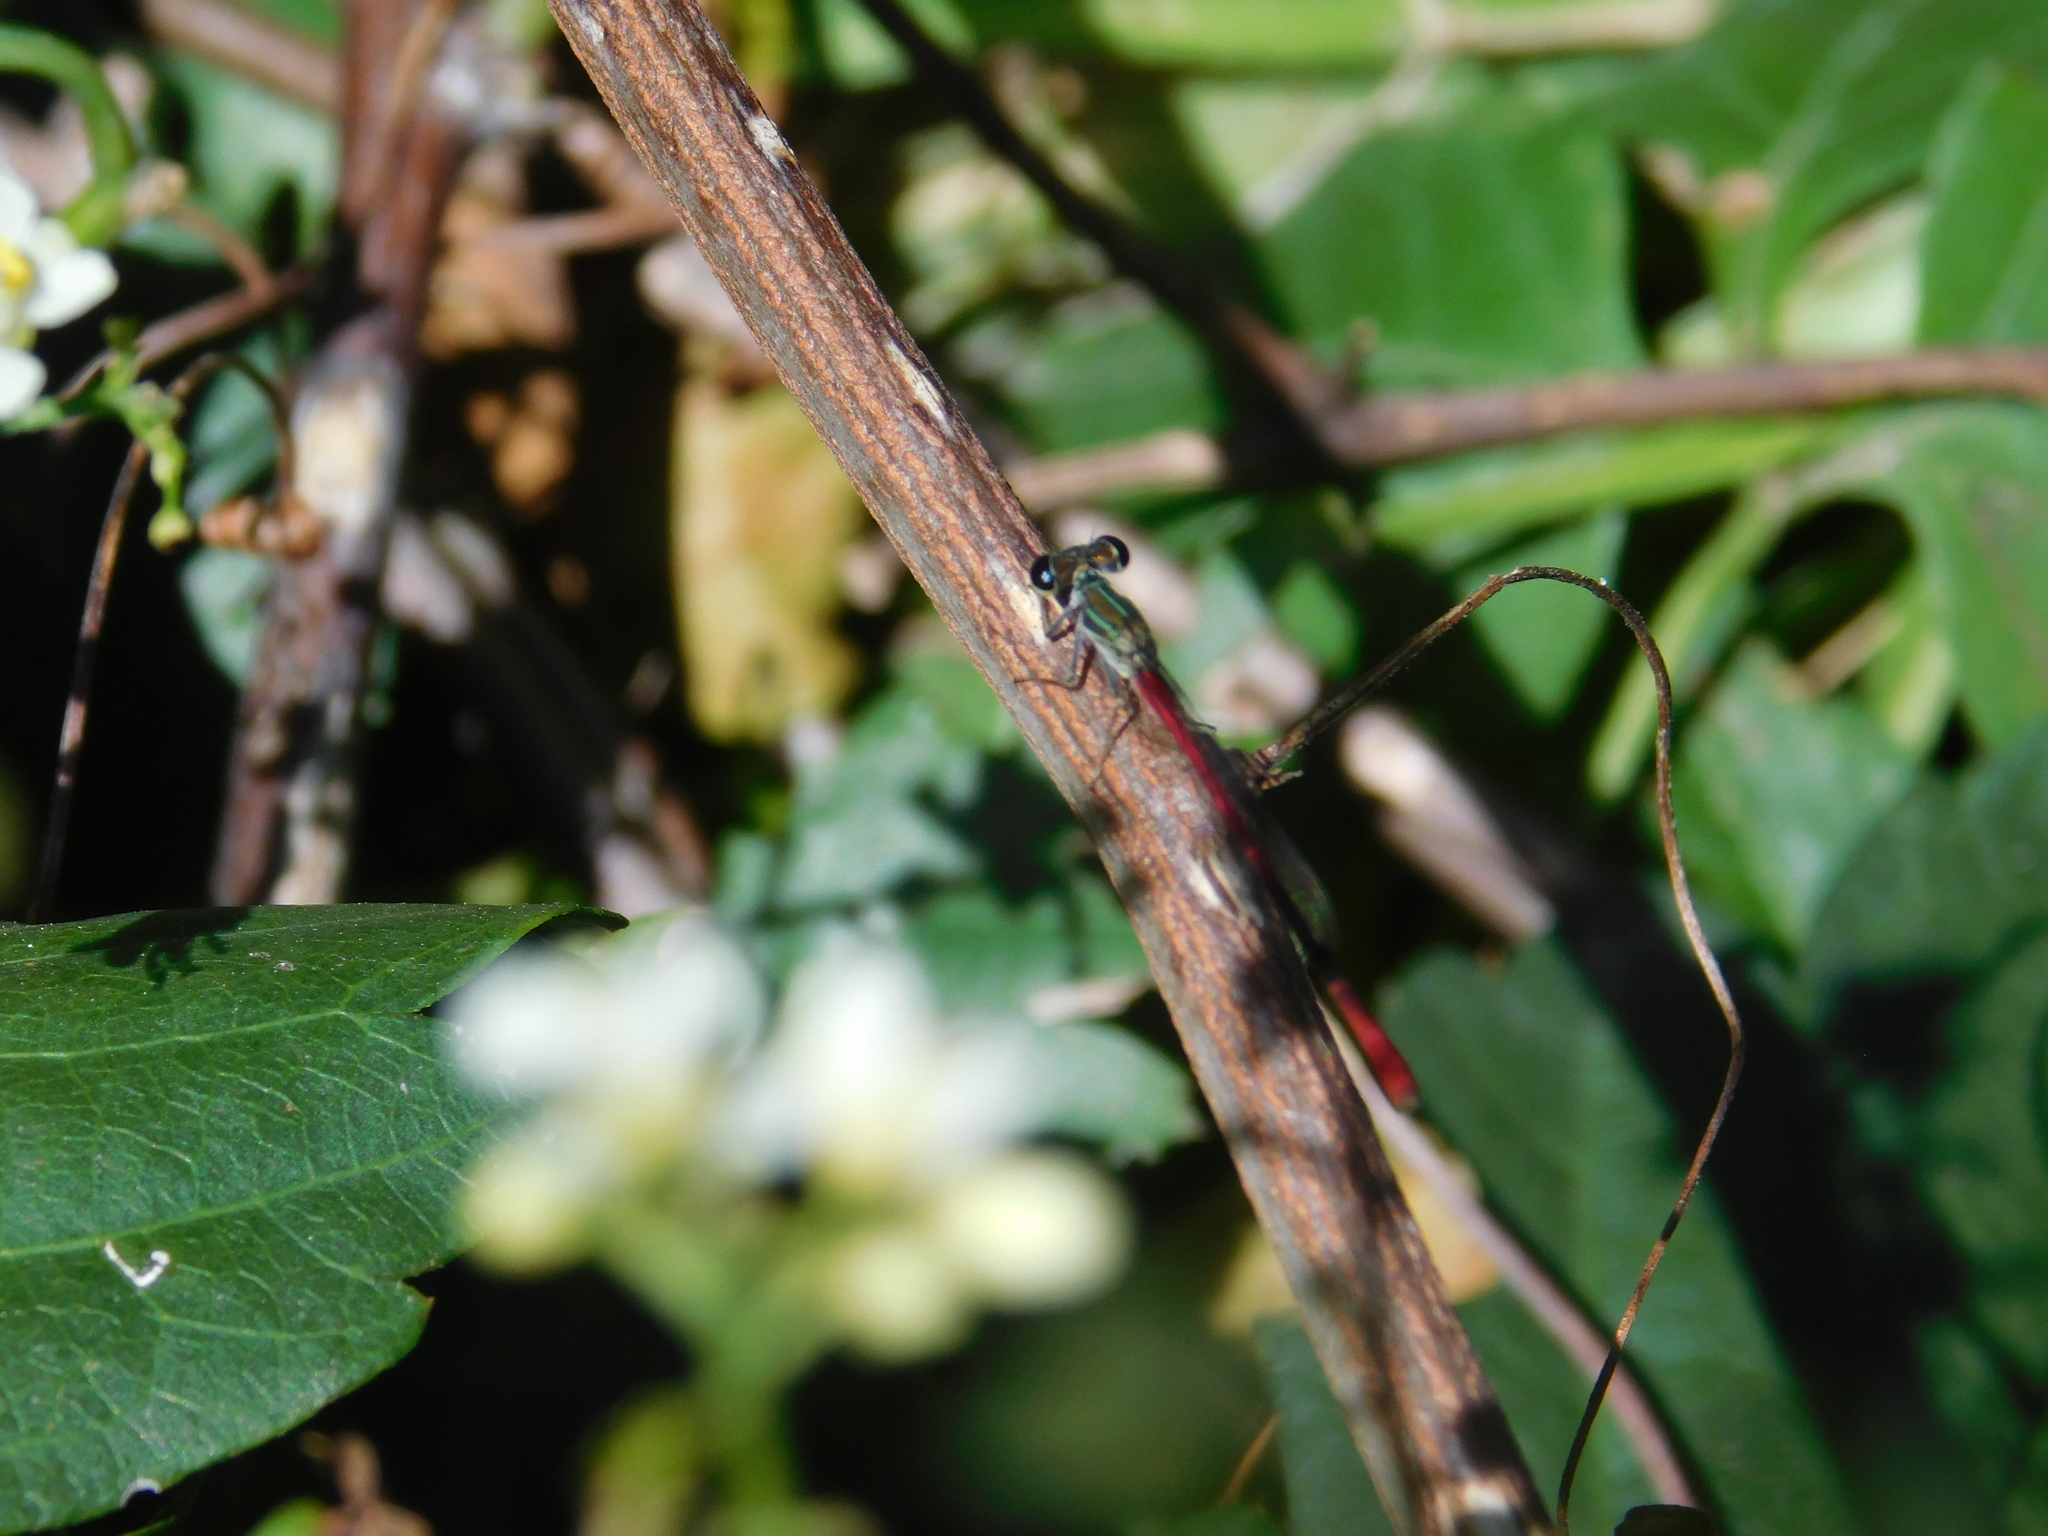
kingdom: Animalia
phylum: Arthropoda
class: Insecta
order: Odonata
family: Coenagrionidae
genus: Telebasis
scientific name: Telebasis willinki
